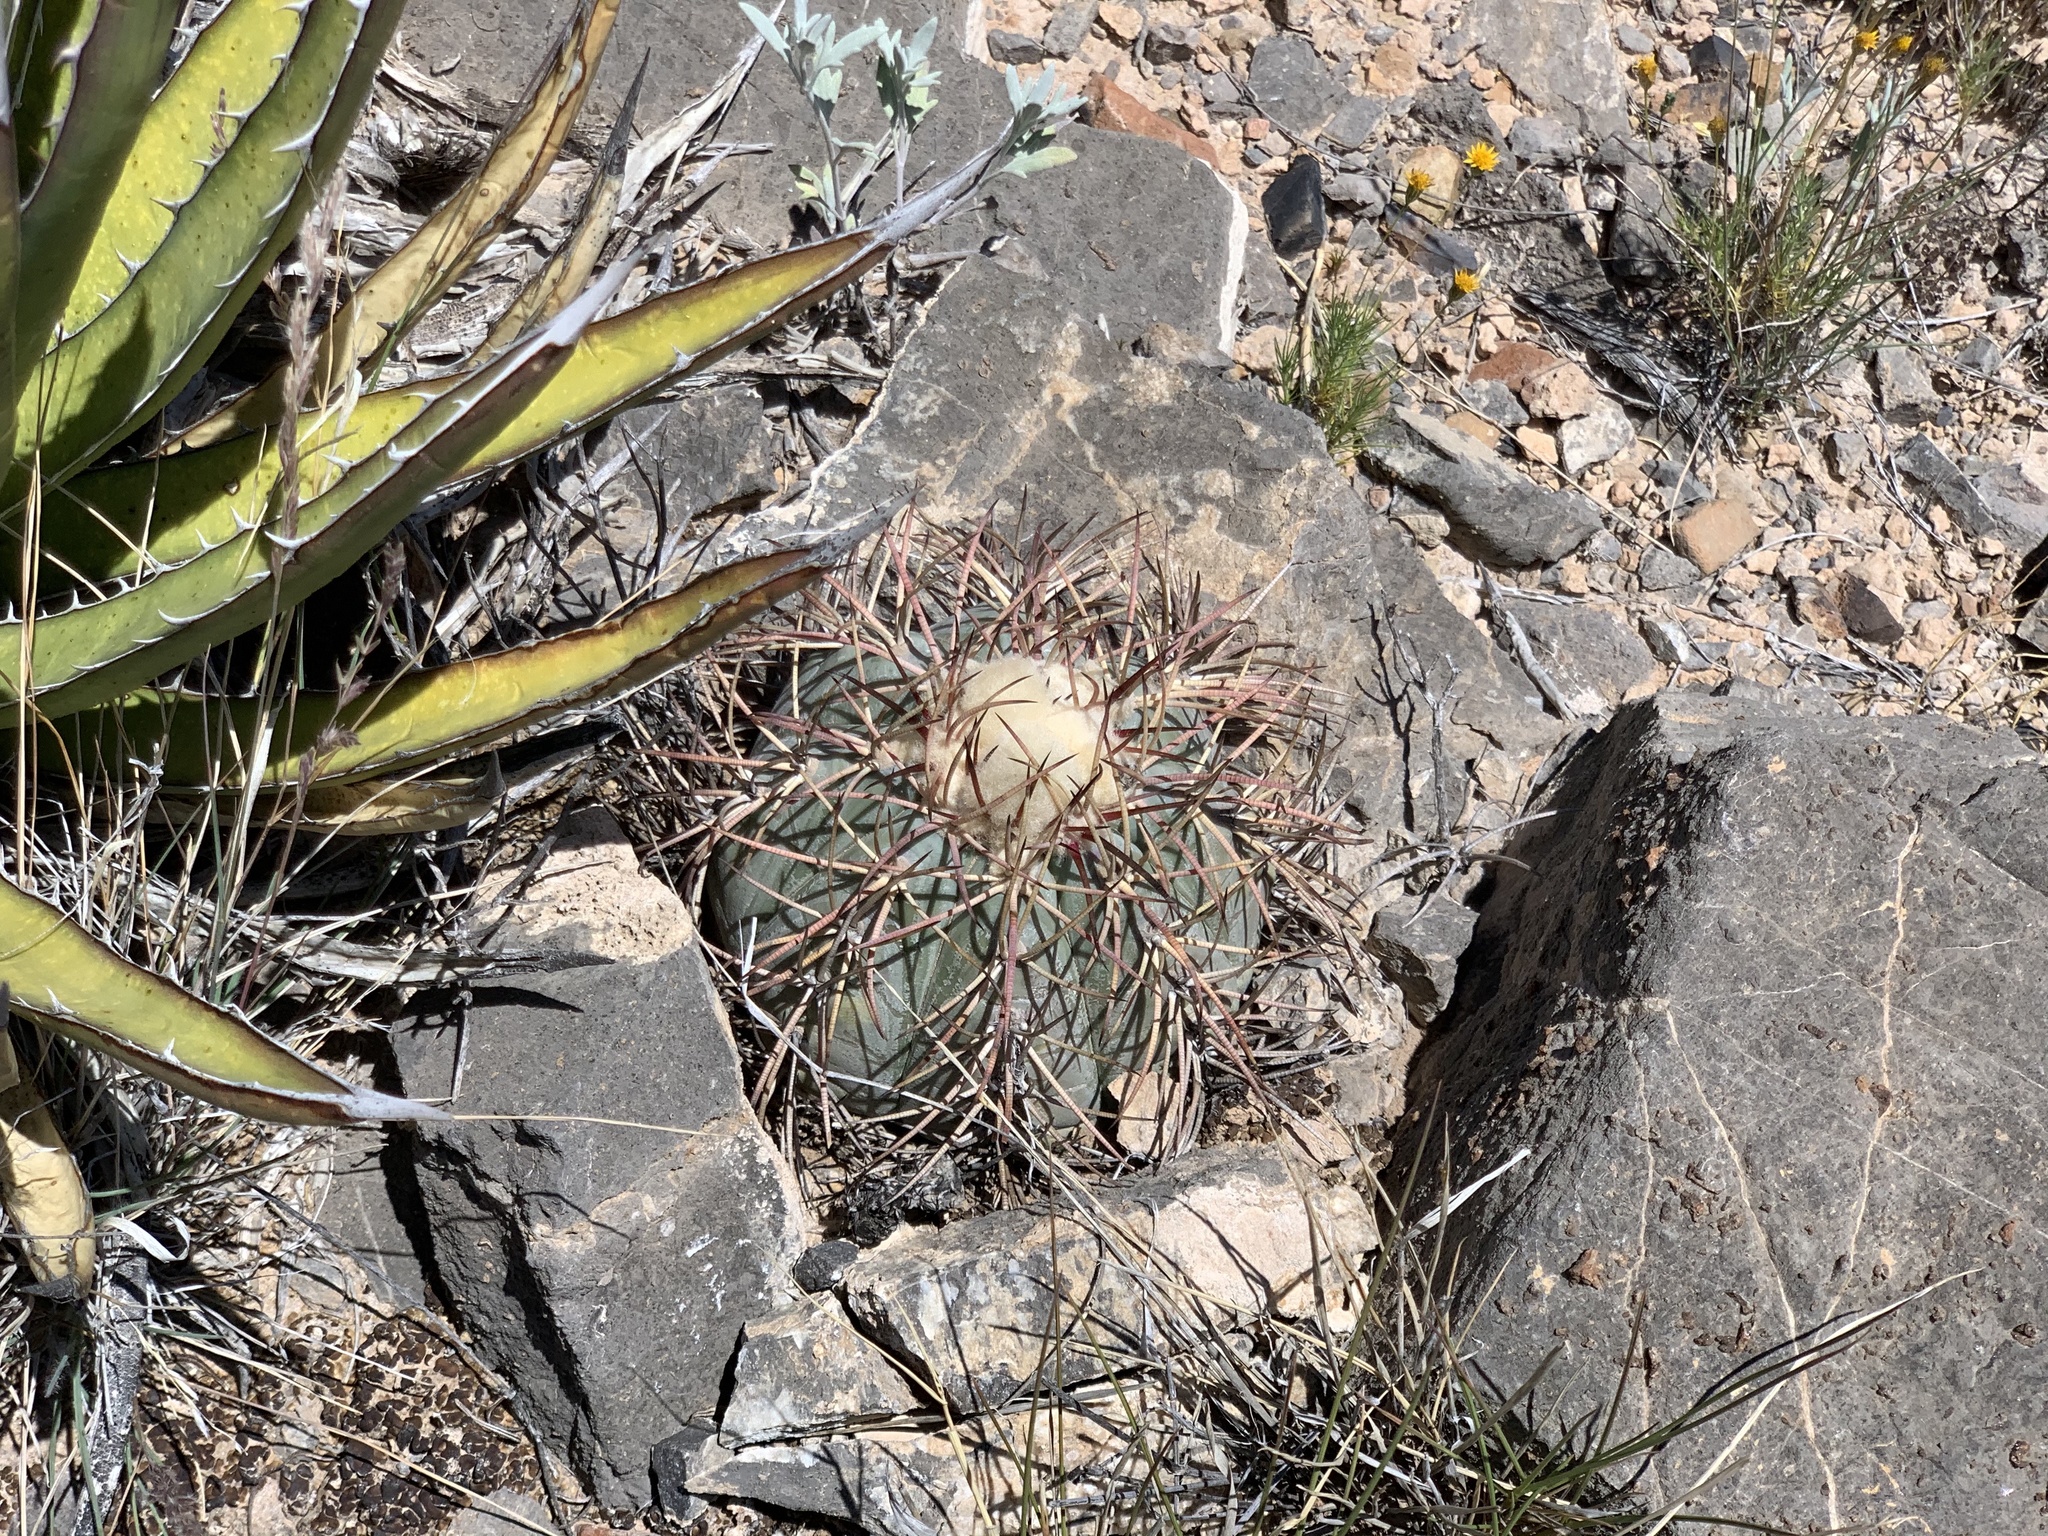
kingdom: Plantae
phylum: Tracheophyta
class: Magnoliopsida
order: Caryophyllales
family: Cactaceae
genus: Echinocactus
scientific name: Echinocactus horizonthalonius
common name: Devilshead
